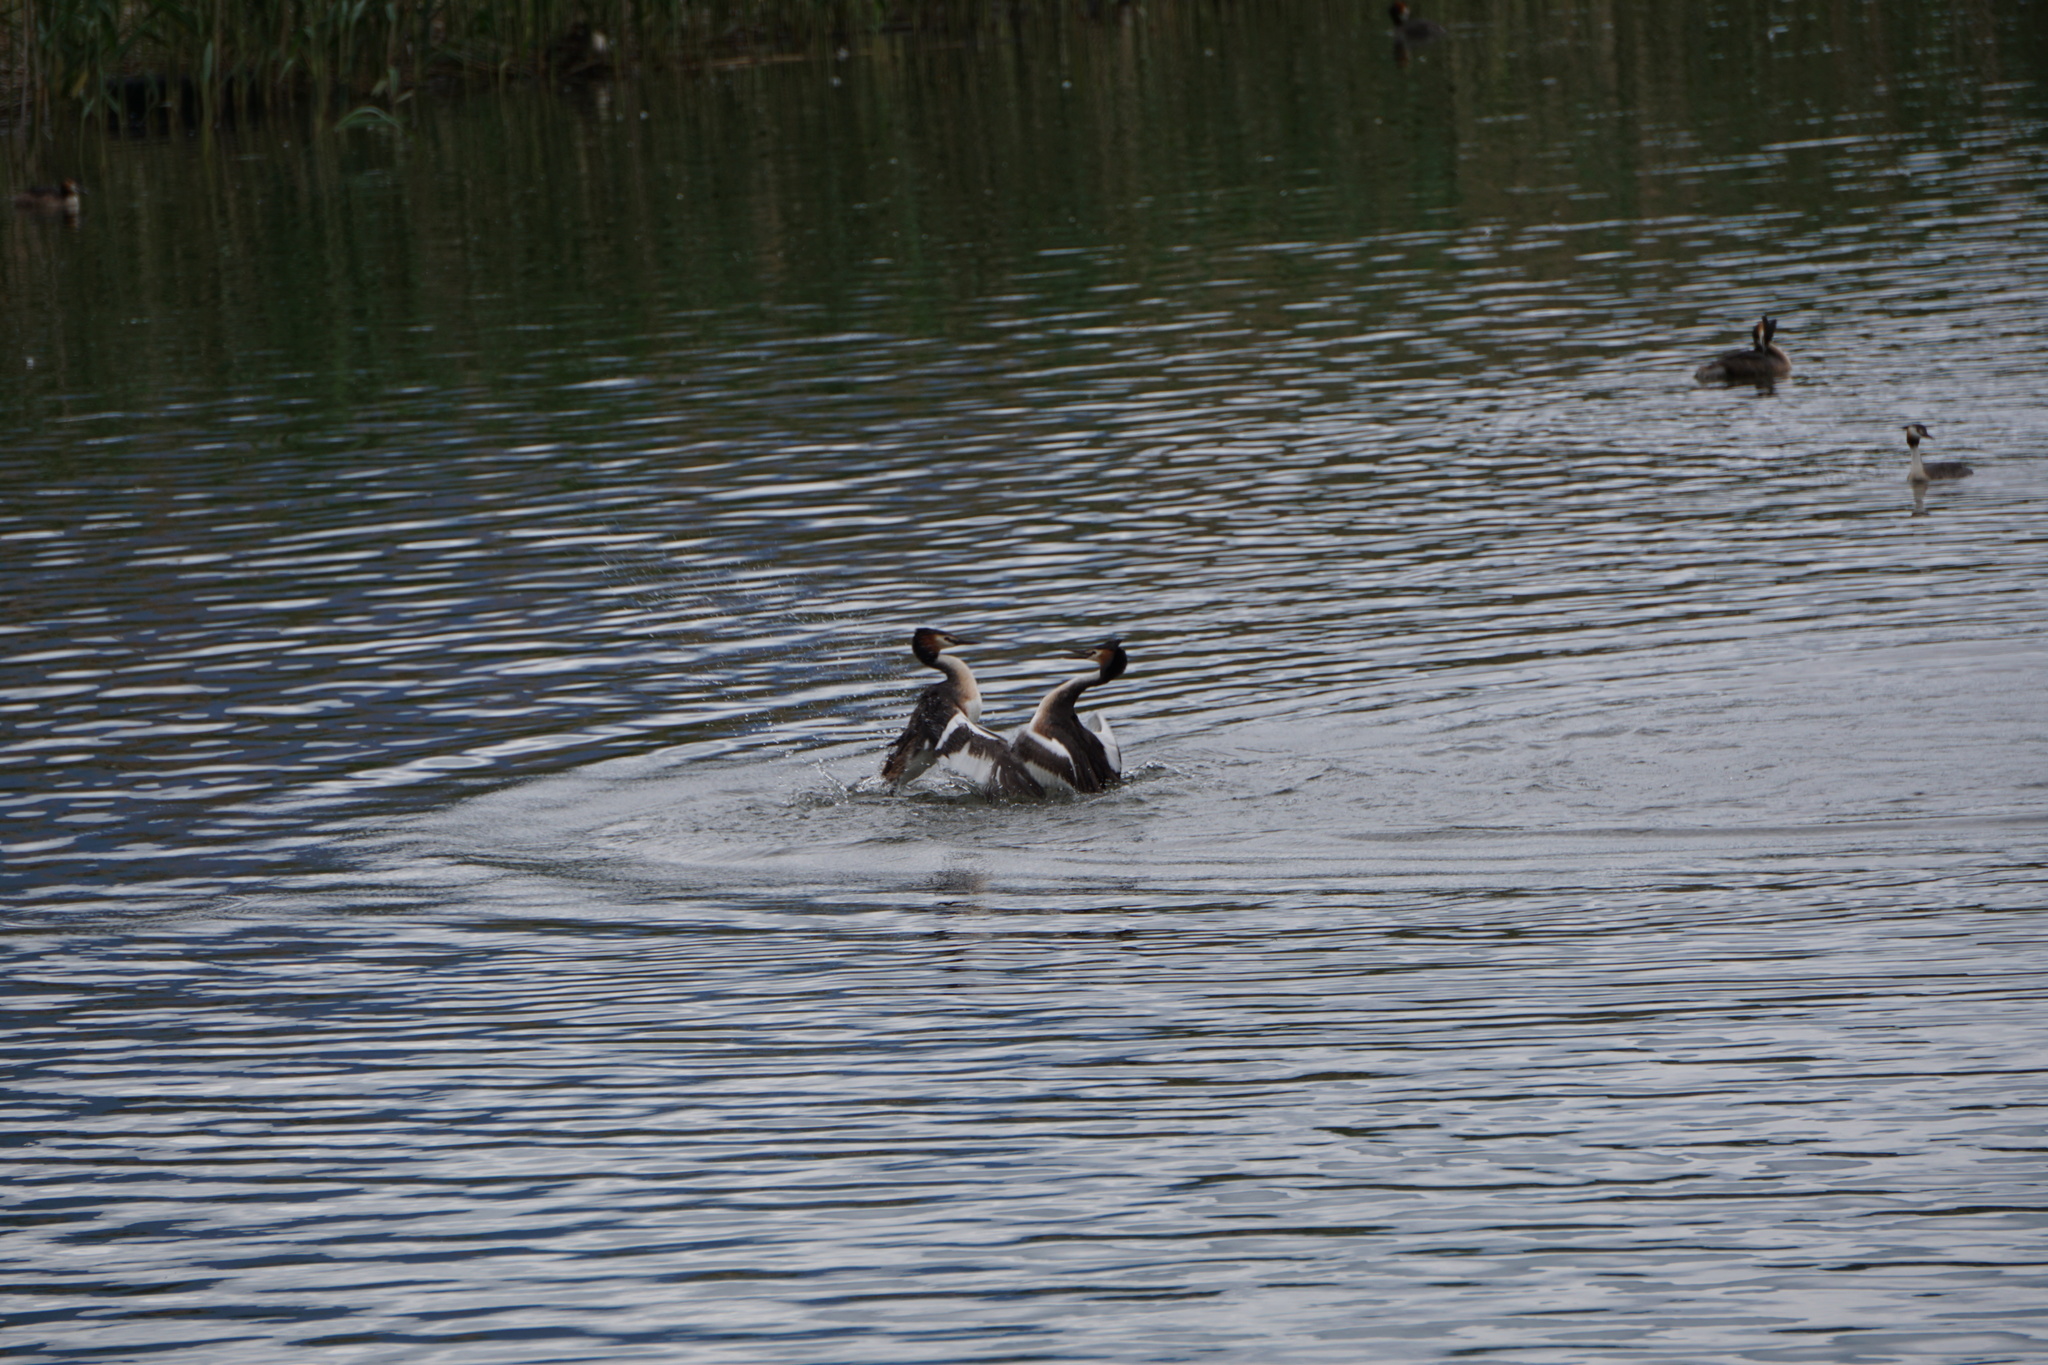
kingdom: Animalia
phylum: Chordata
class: Aves
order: Podicipediformes
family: Podicipedidae
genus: Podiceps
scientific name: Podiceps cristatus
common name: Great crested grebe
